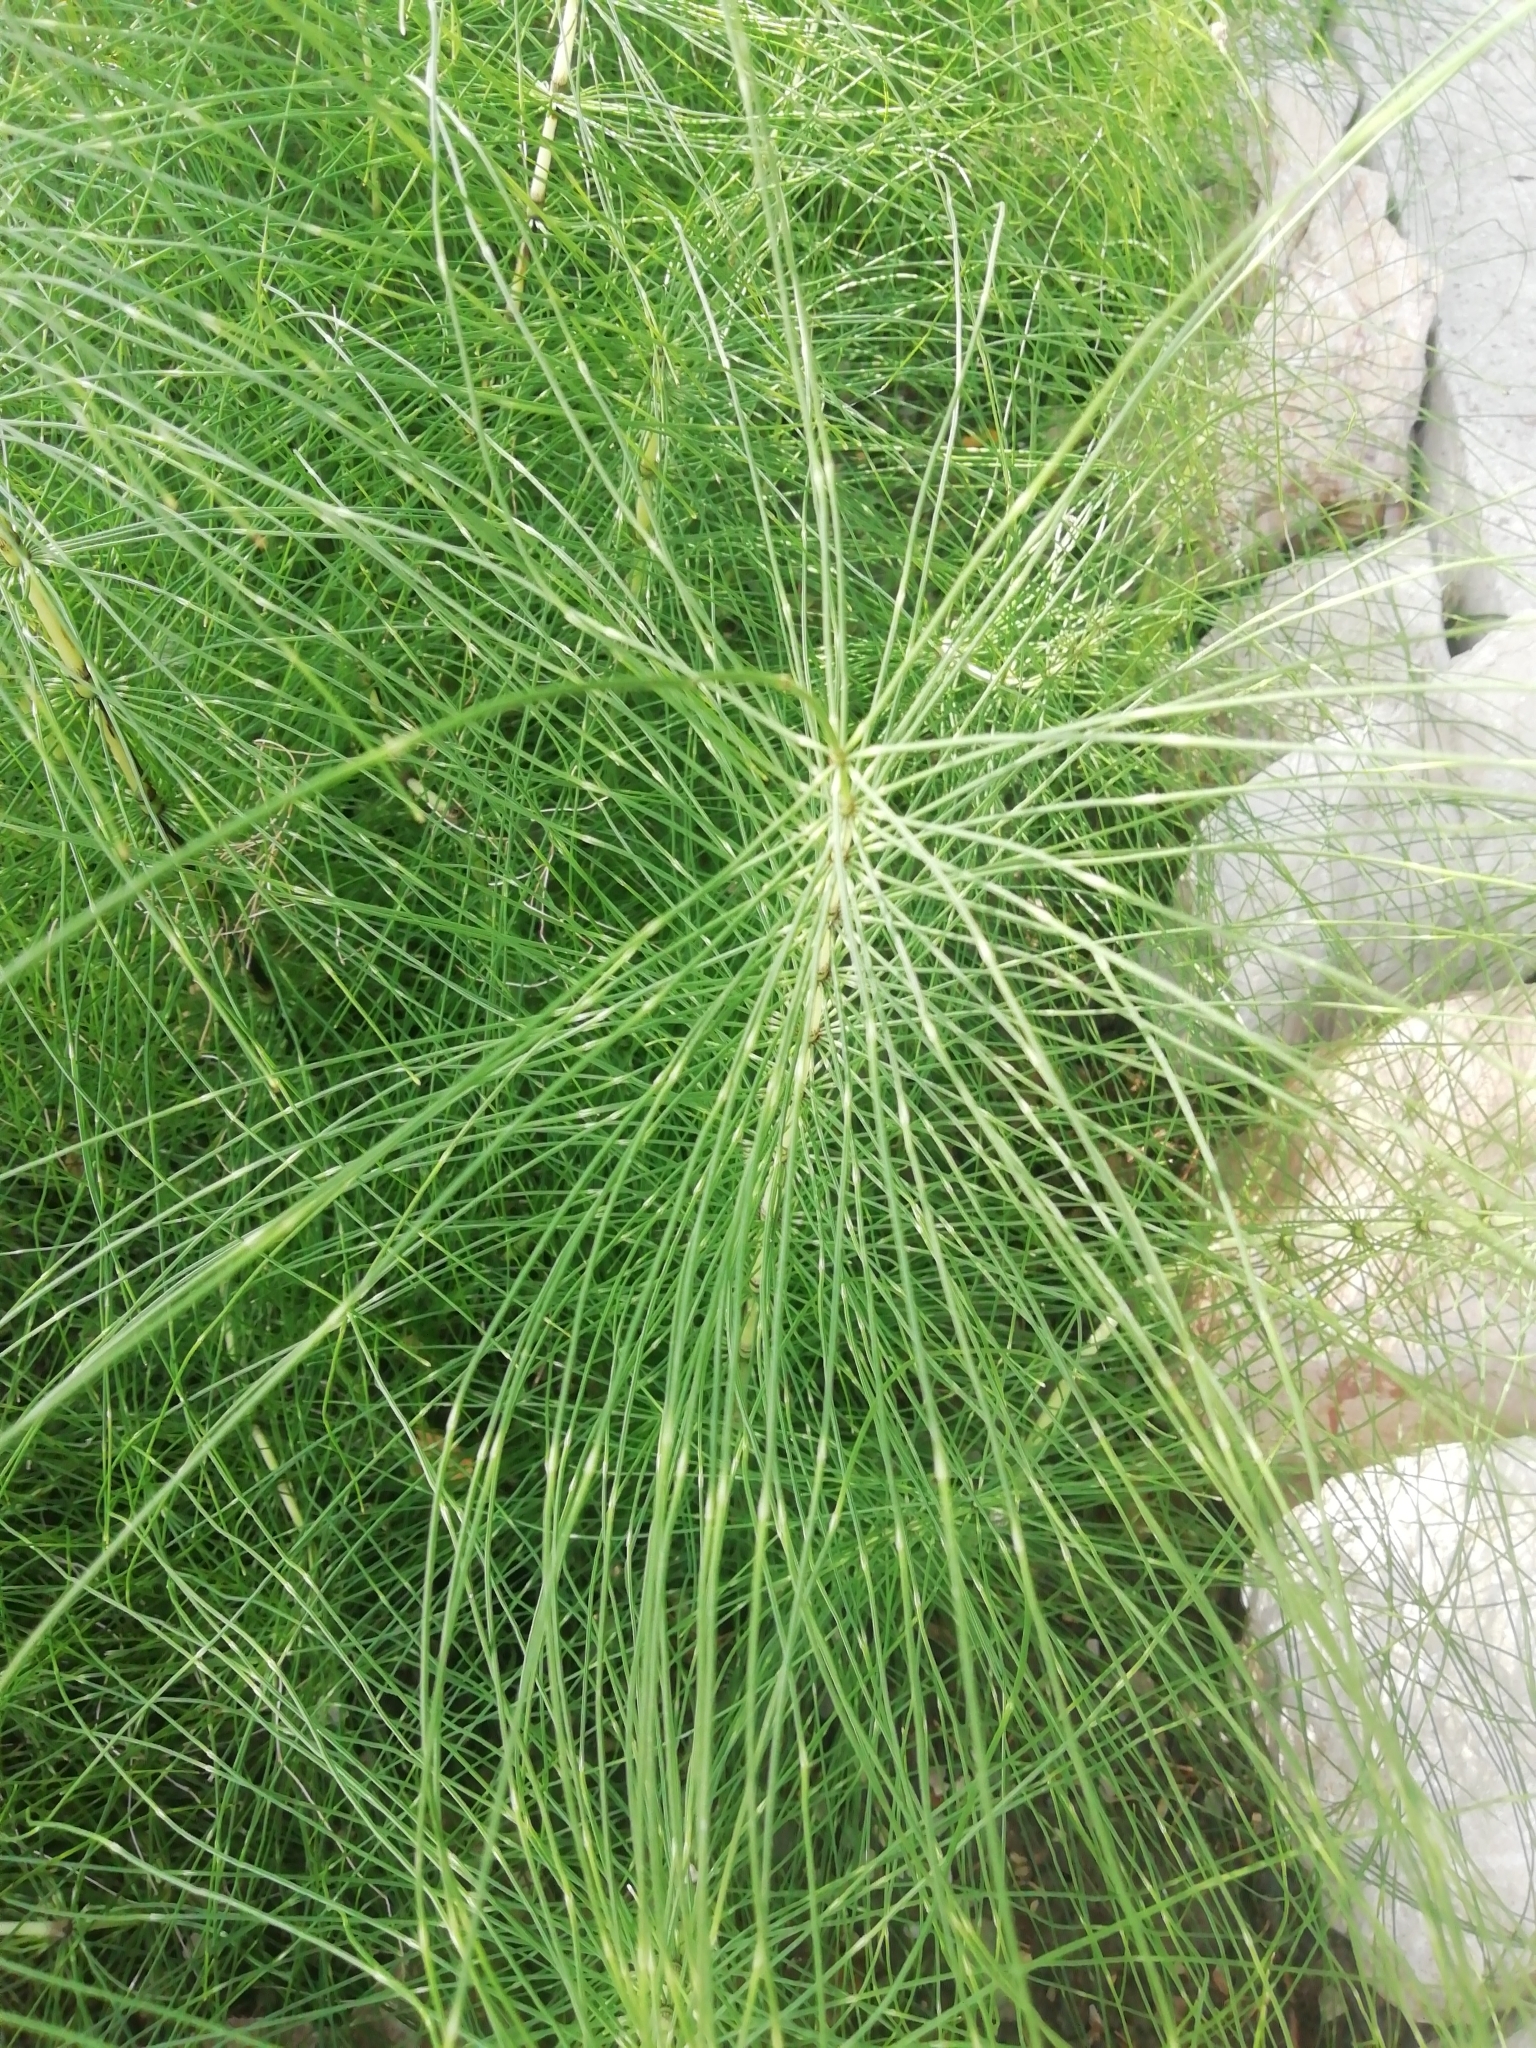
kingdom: Plantae
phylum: Tracheophyta
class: Polypodiopsida
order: Equisetales
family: Equisetaceae
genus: Equisetum
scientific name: Equisetum telmateia
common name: Great horsetail
